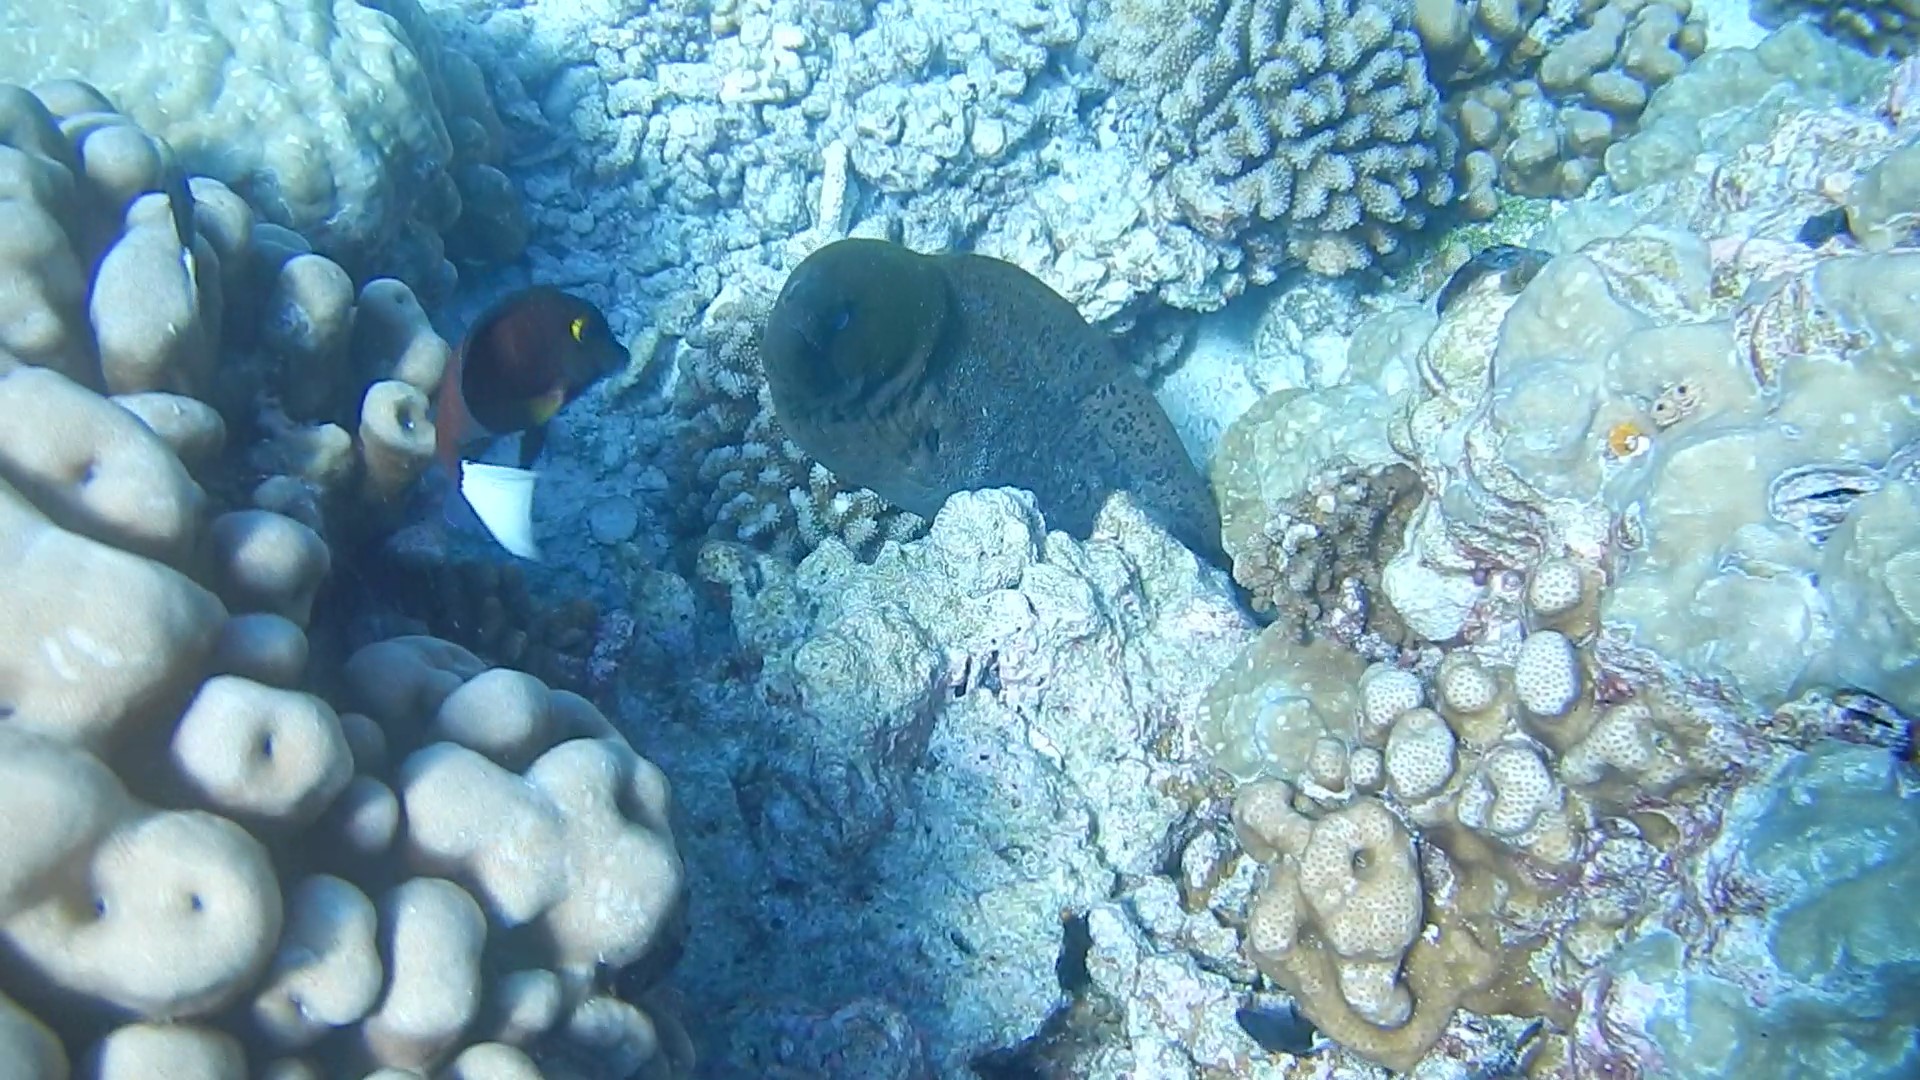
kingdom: Animalia
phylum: Chordata
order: Anguilliformes
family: Muraenidae
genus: Gymnothorax
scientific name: Gymnothorax javanicus
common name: Giant moray
